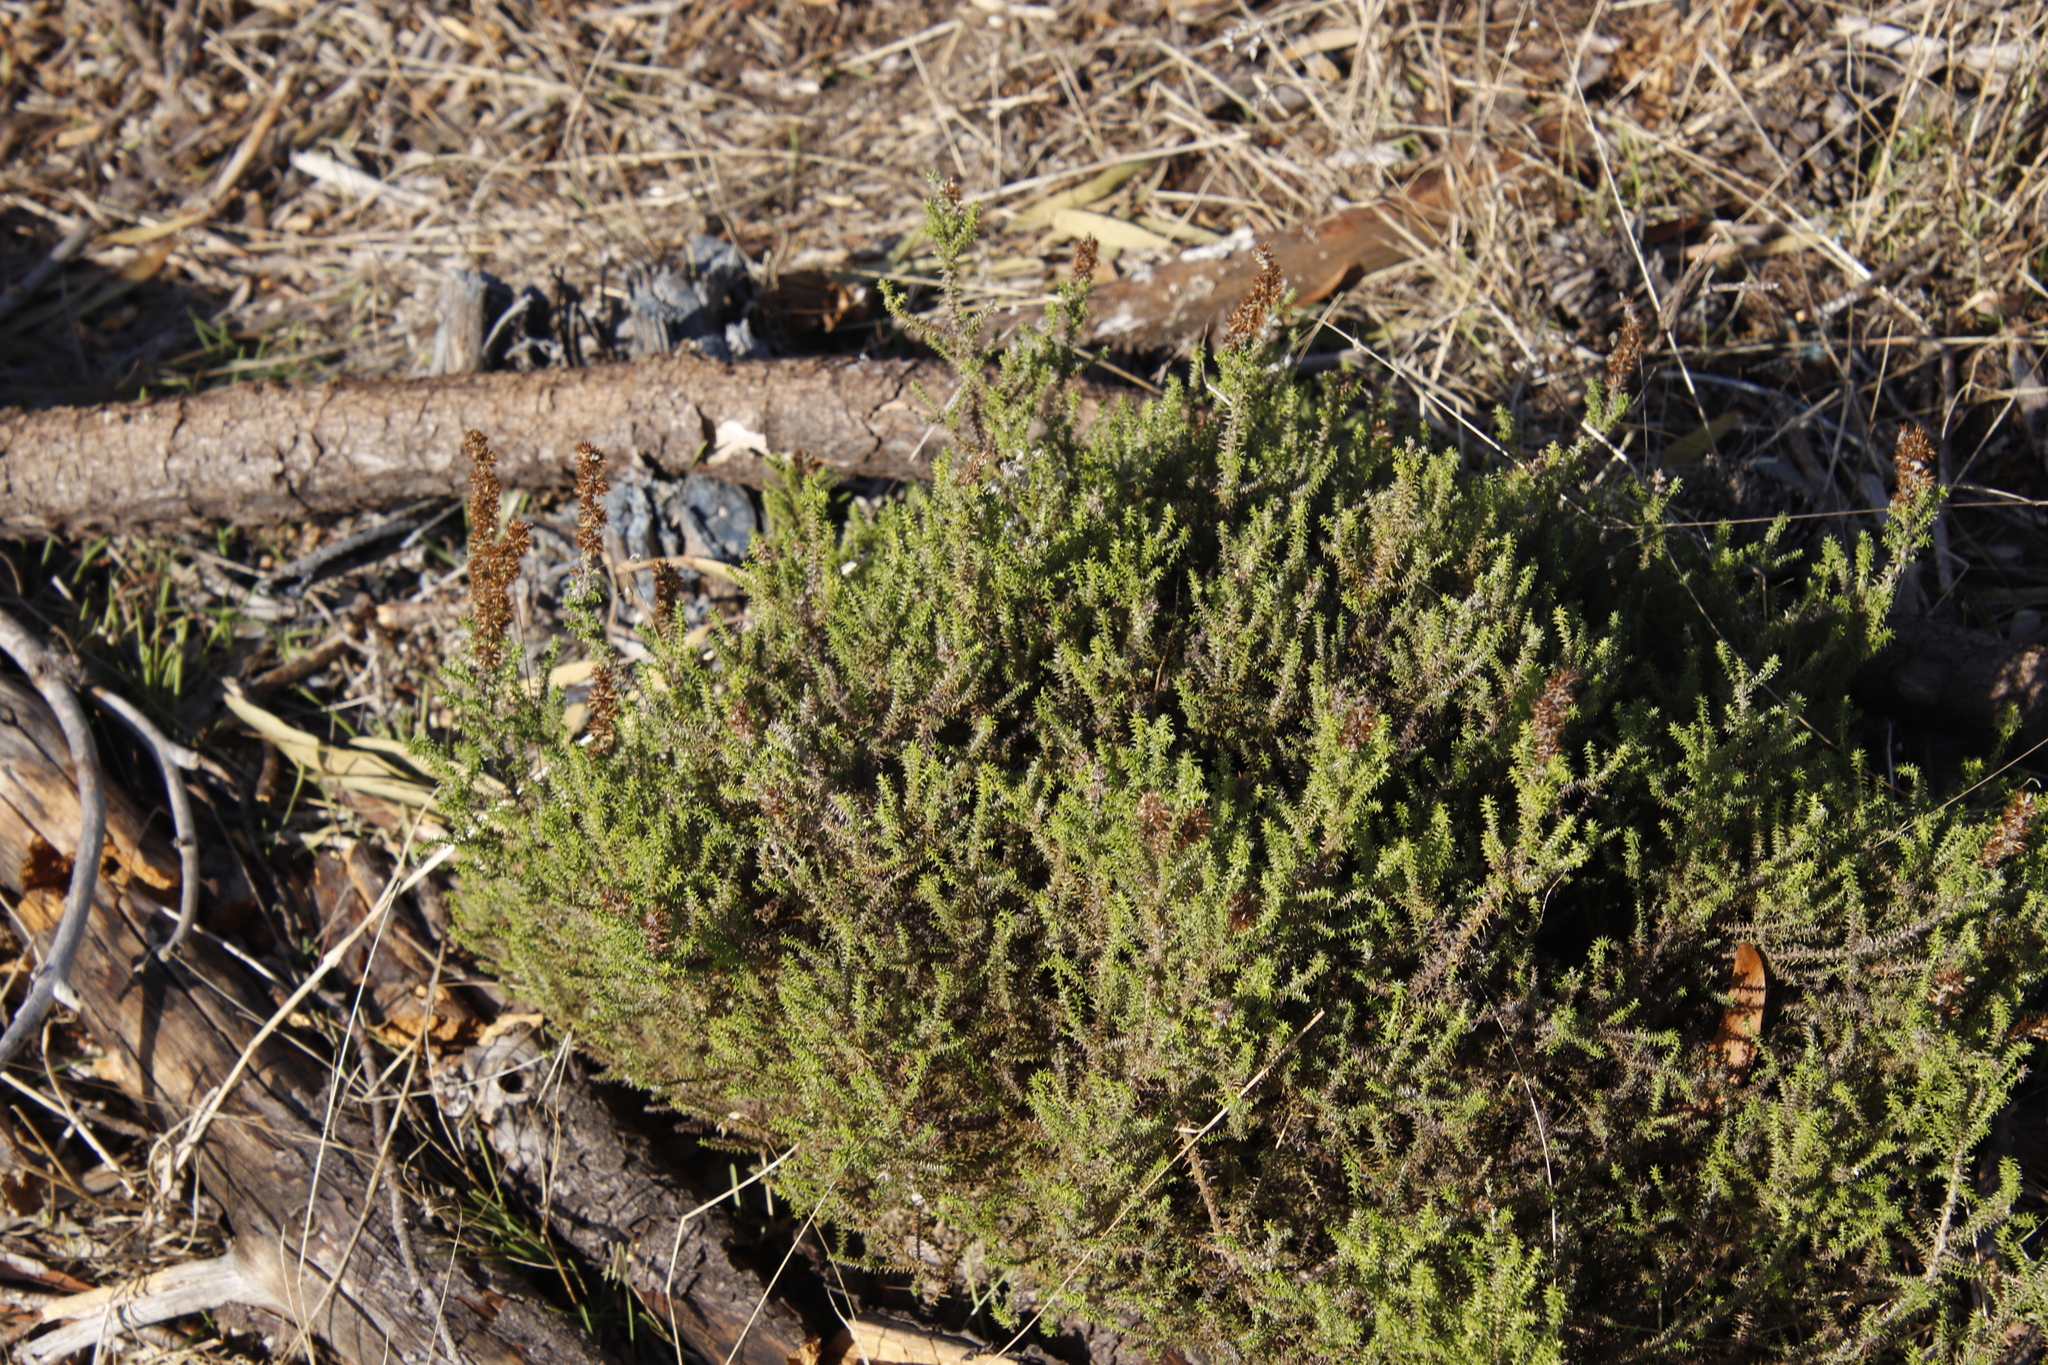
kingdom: Plantae
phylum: Tracheophyta
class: Magnoliopsida
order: Asterales
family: Asteraceae
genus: Seriphium
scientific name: Seriphium cinereum
